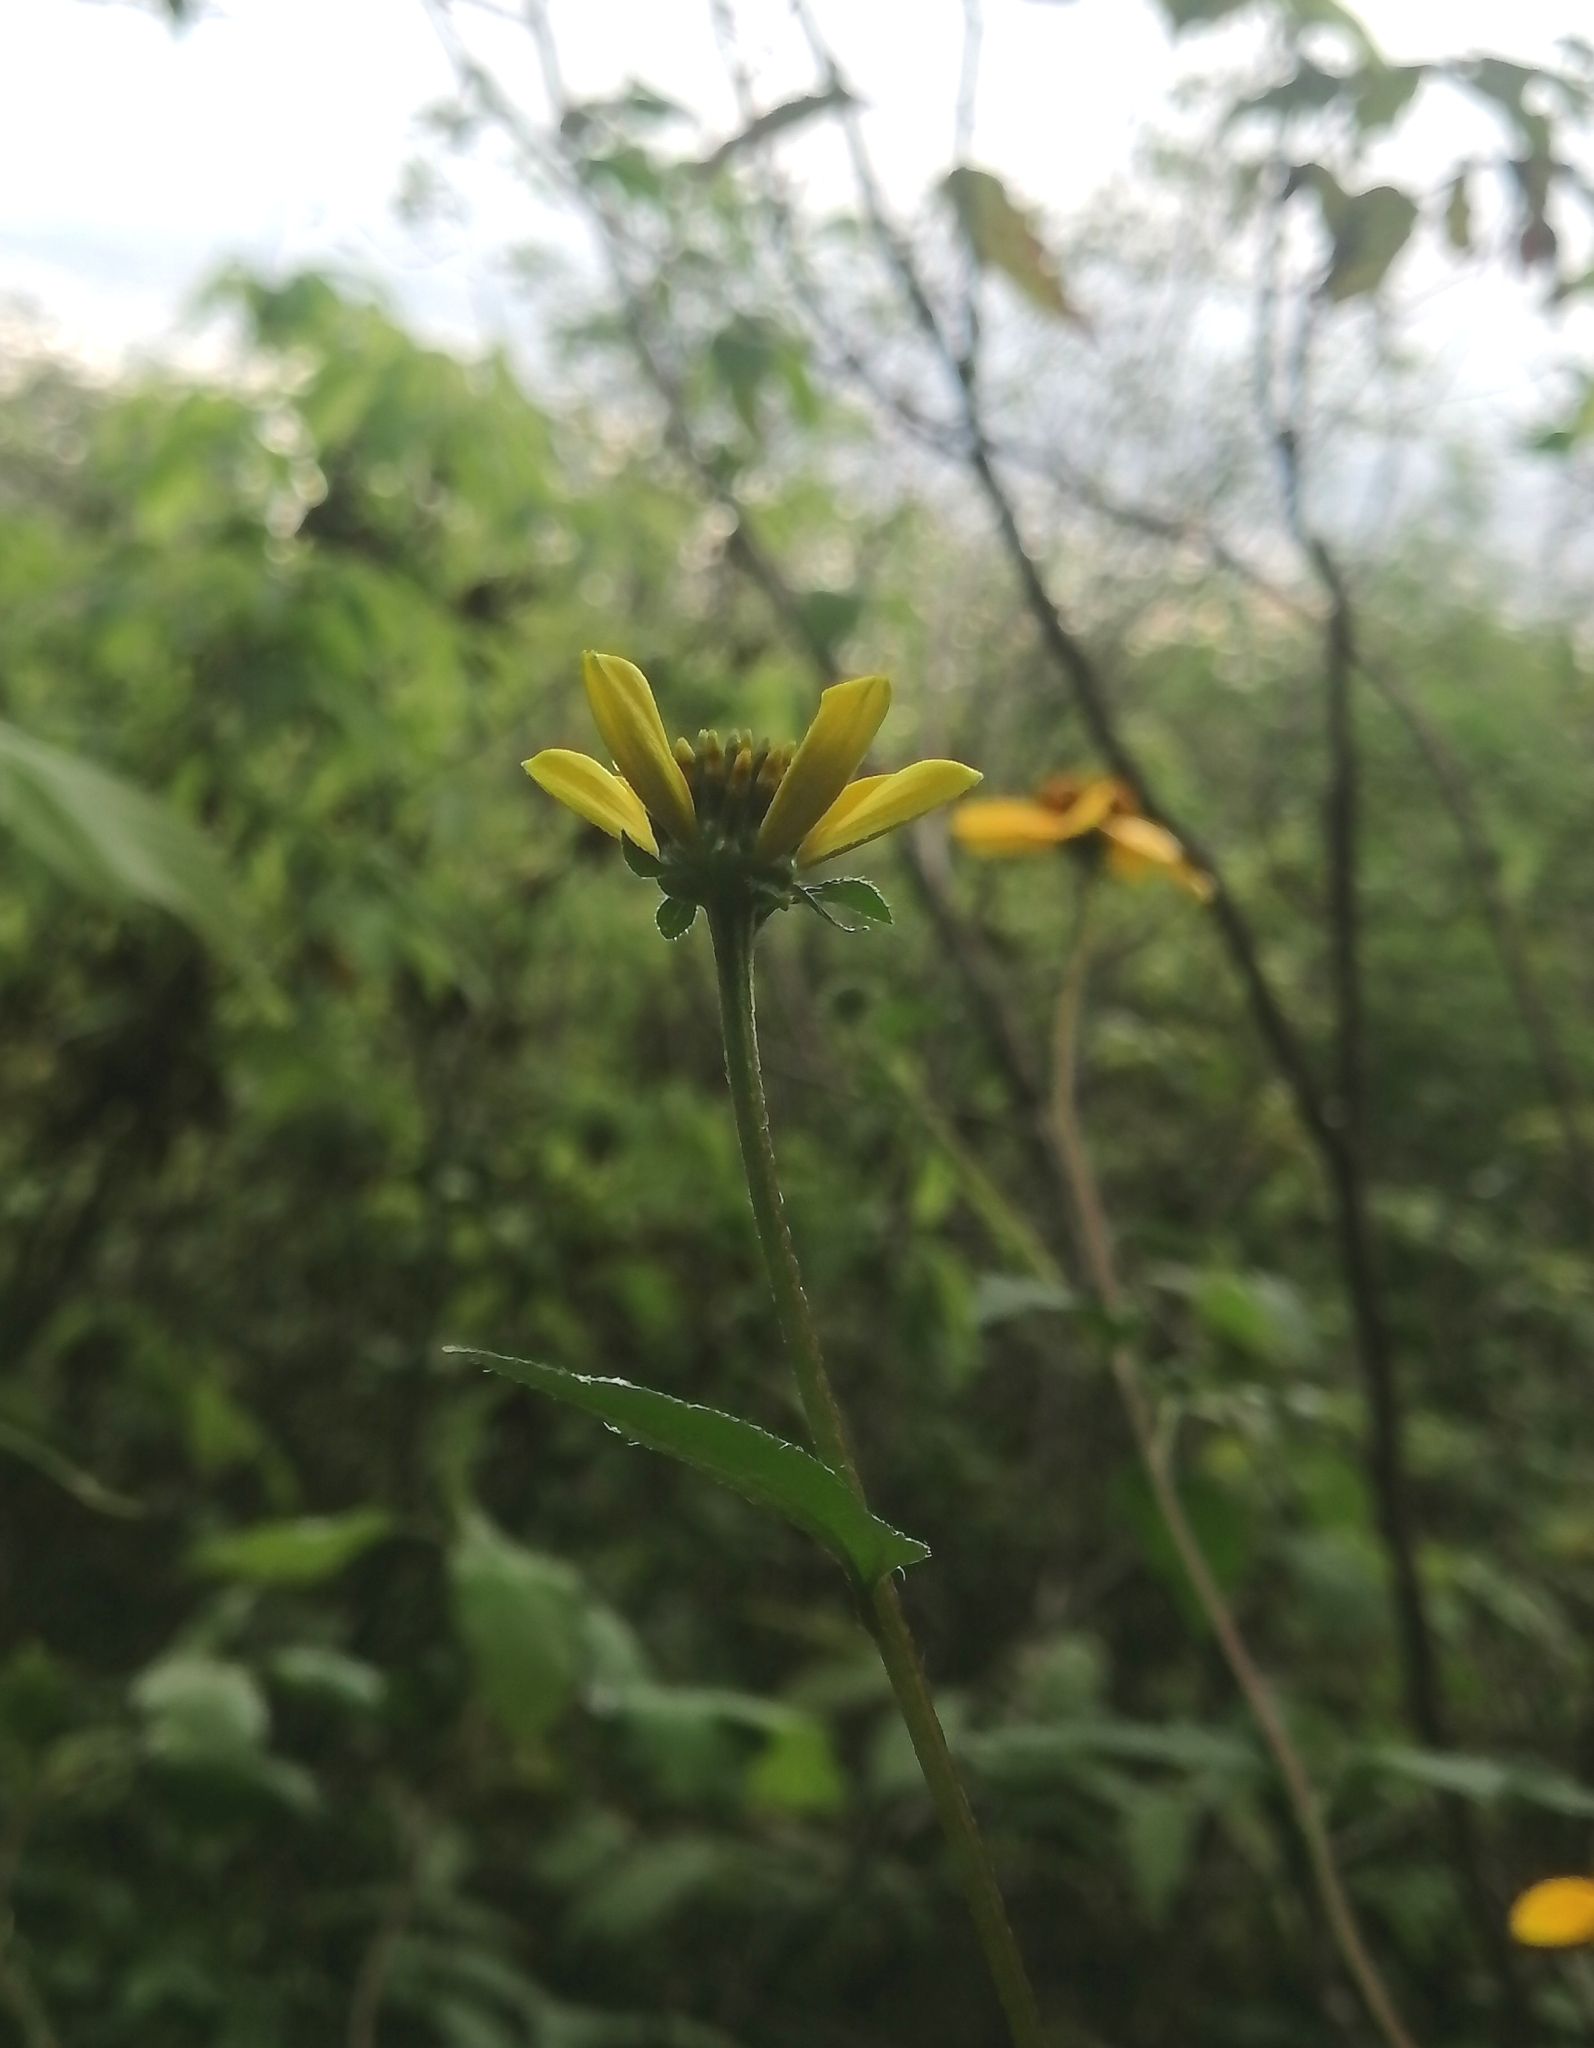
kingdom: Plantae
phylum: Tracheophyta
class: Magnoliopsida
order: Asterales
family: Asteraceae
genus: Sclerocarpus
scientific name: Sclerocarpus uniserialis
